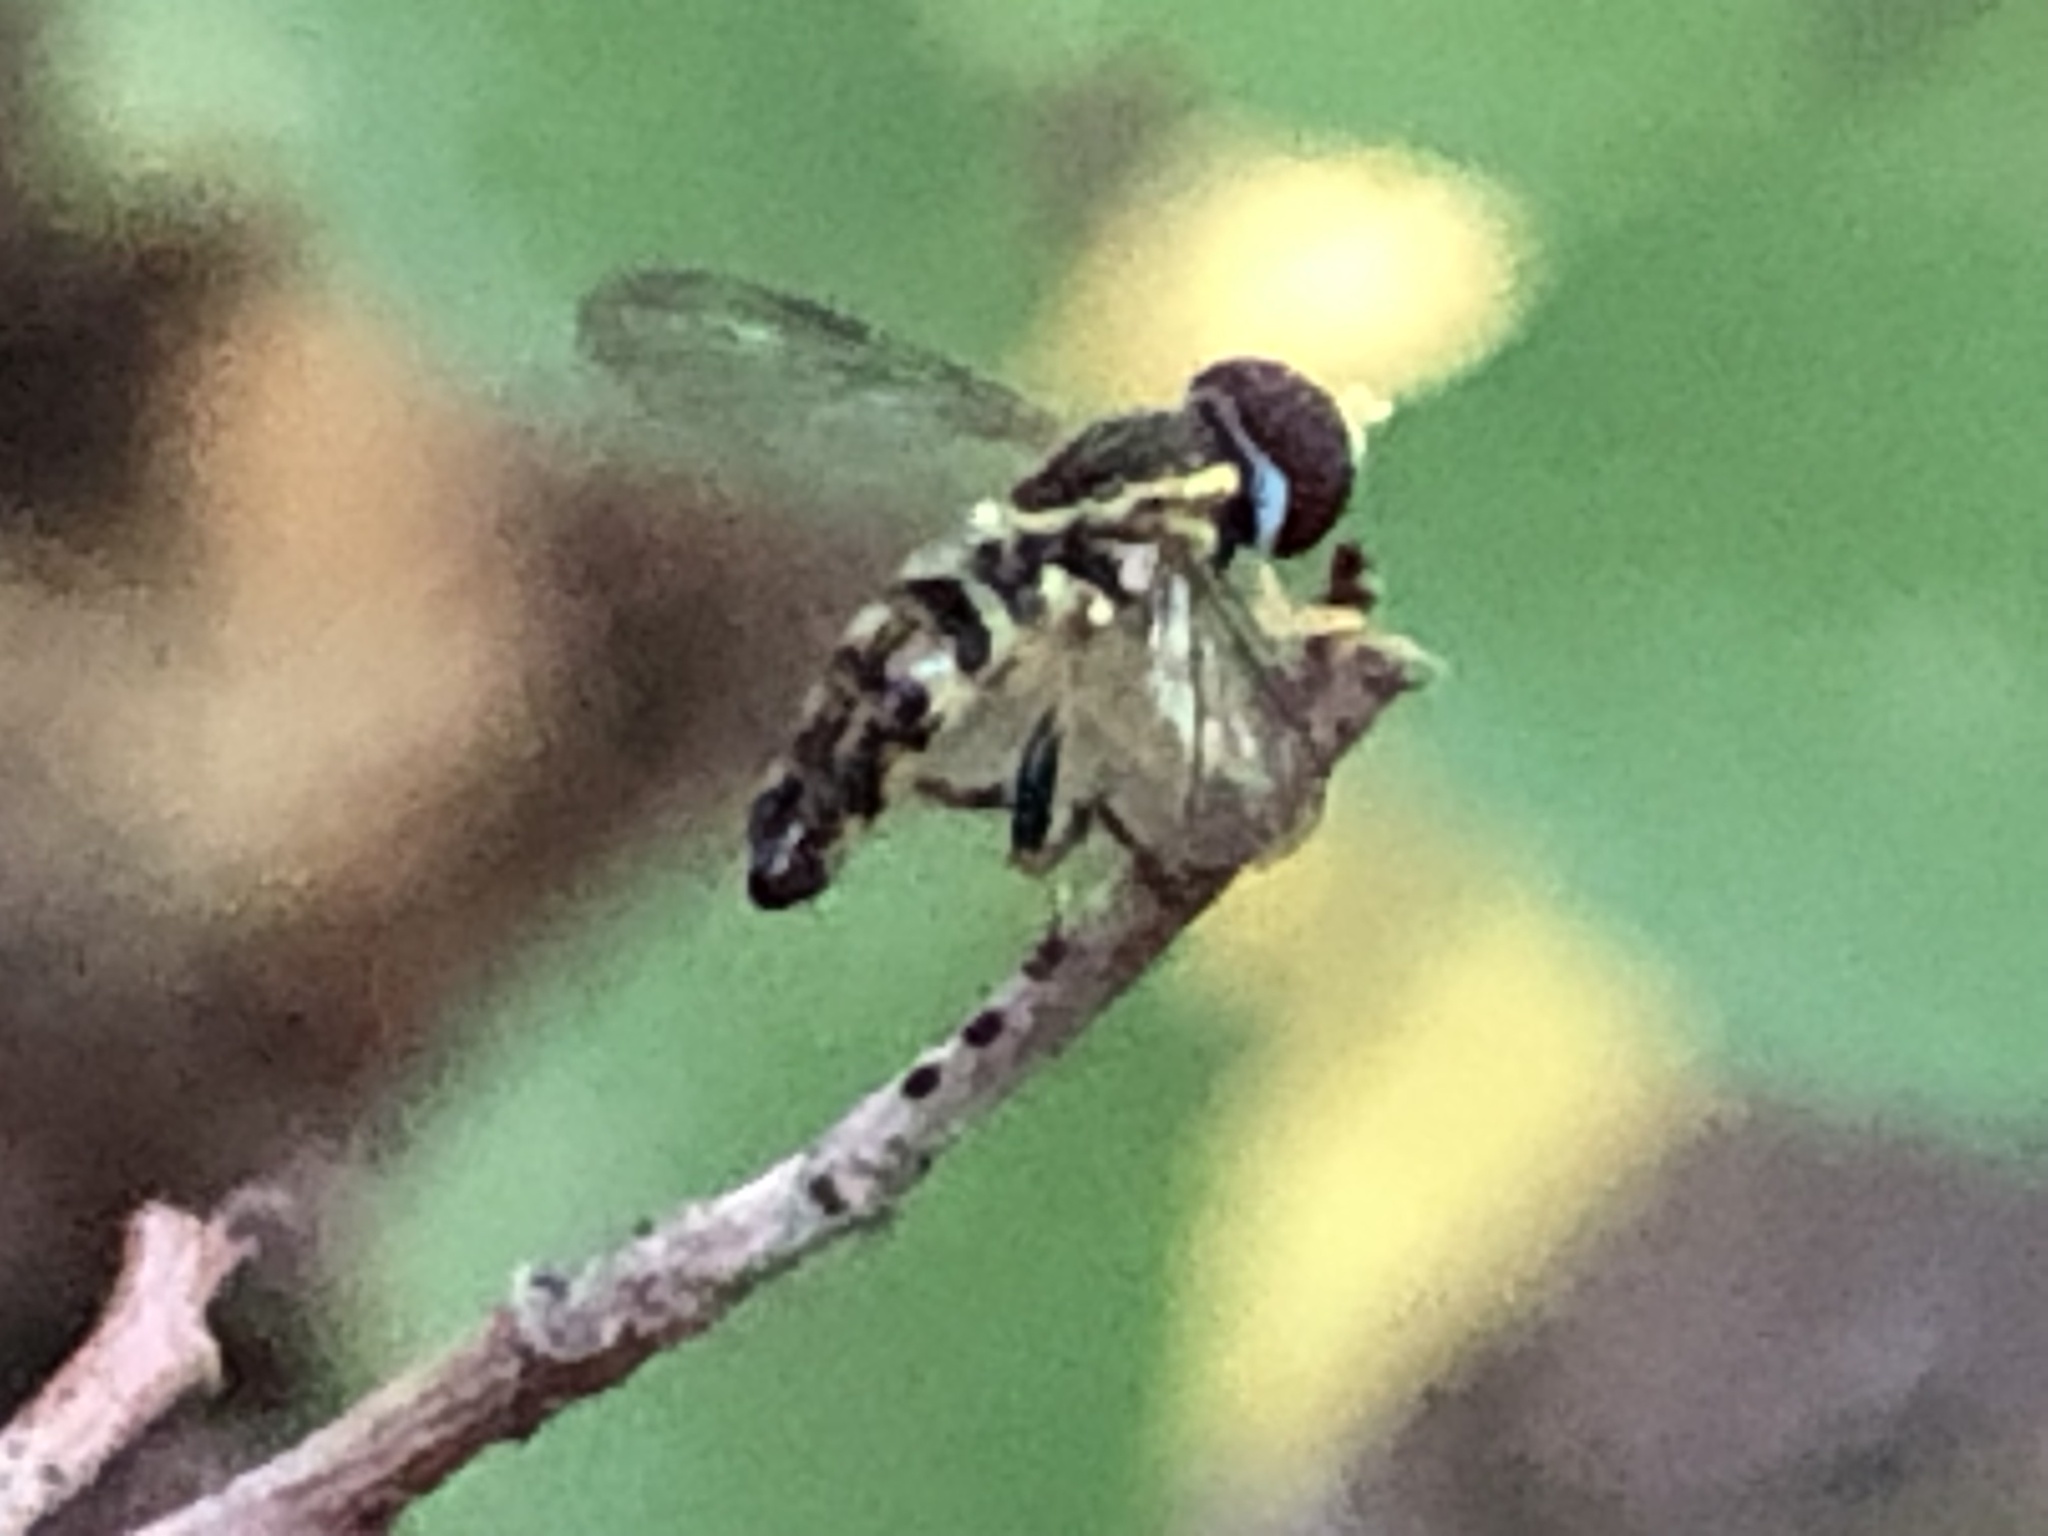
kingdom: Animalia
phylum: Arthropoda
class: Insecta
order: Diptera
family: Syrphidae
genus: Toxomerus
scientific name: Toxomerus geminatus
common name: Eastern calligrapher
